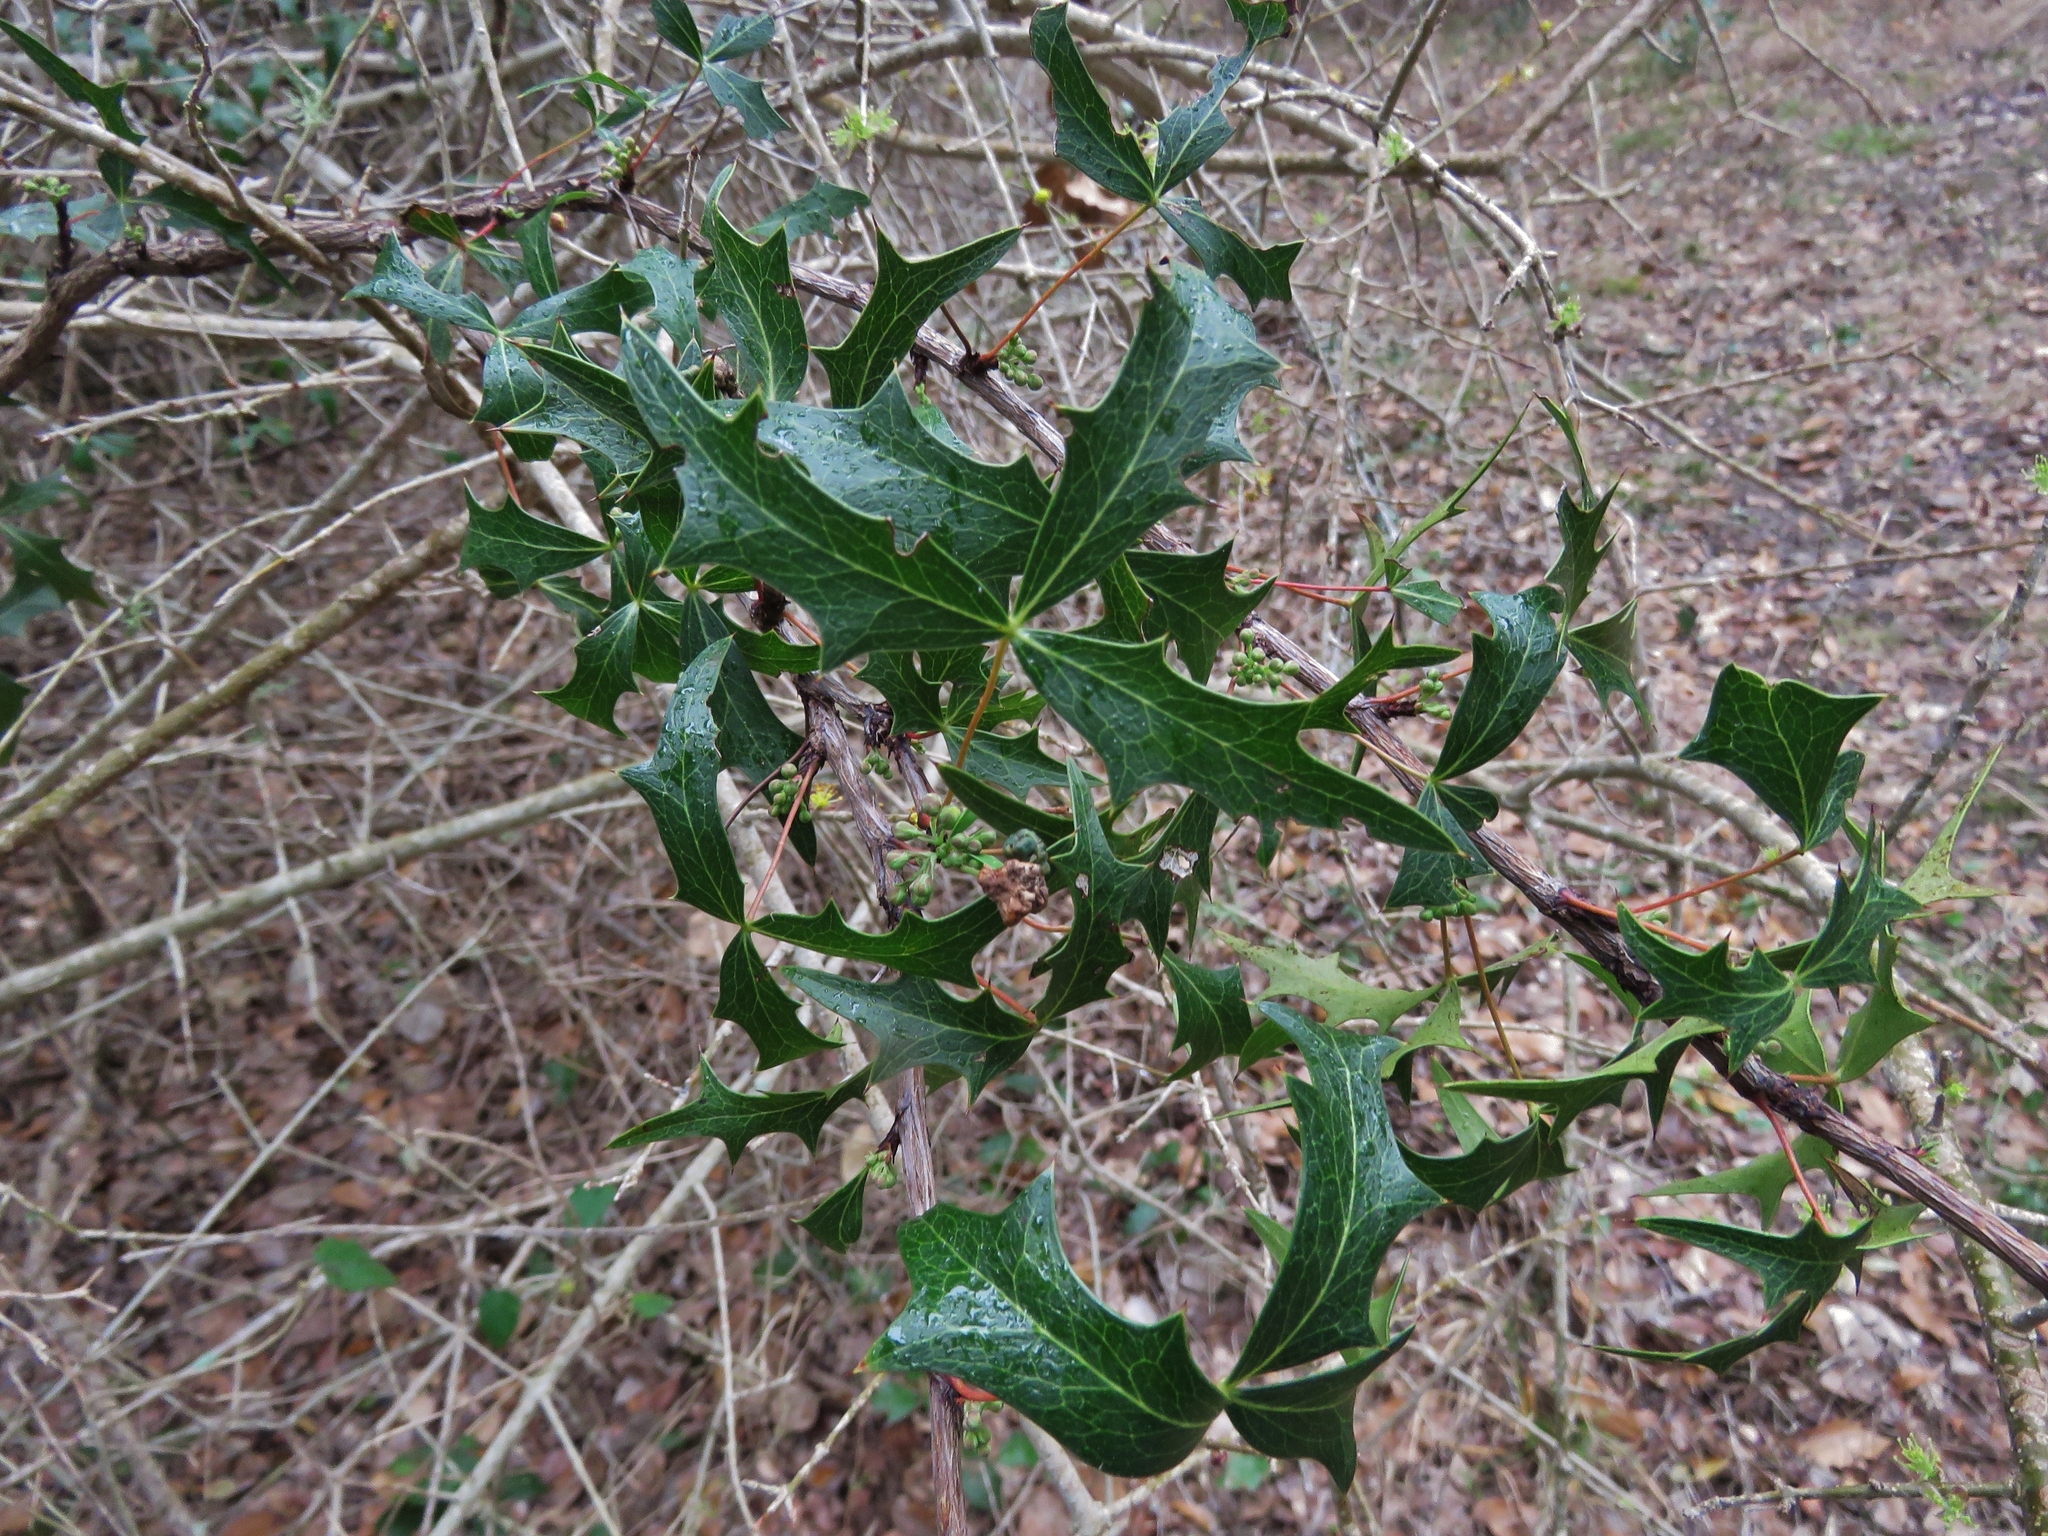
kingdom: Plantae
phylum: Tracheophyta
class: Magnoliopsida
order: Ranunculales
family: Berberidaceae
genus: Alloberberis
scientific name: Alloberberis trifoliolata
